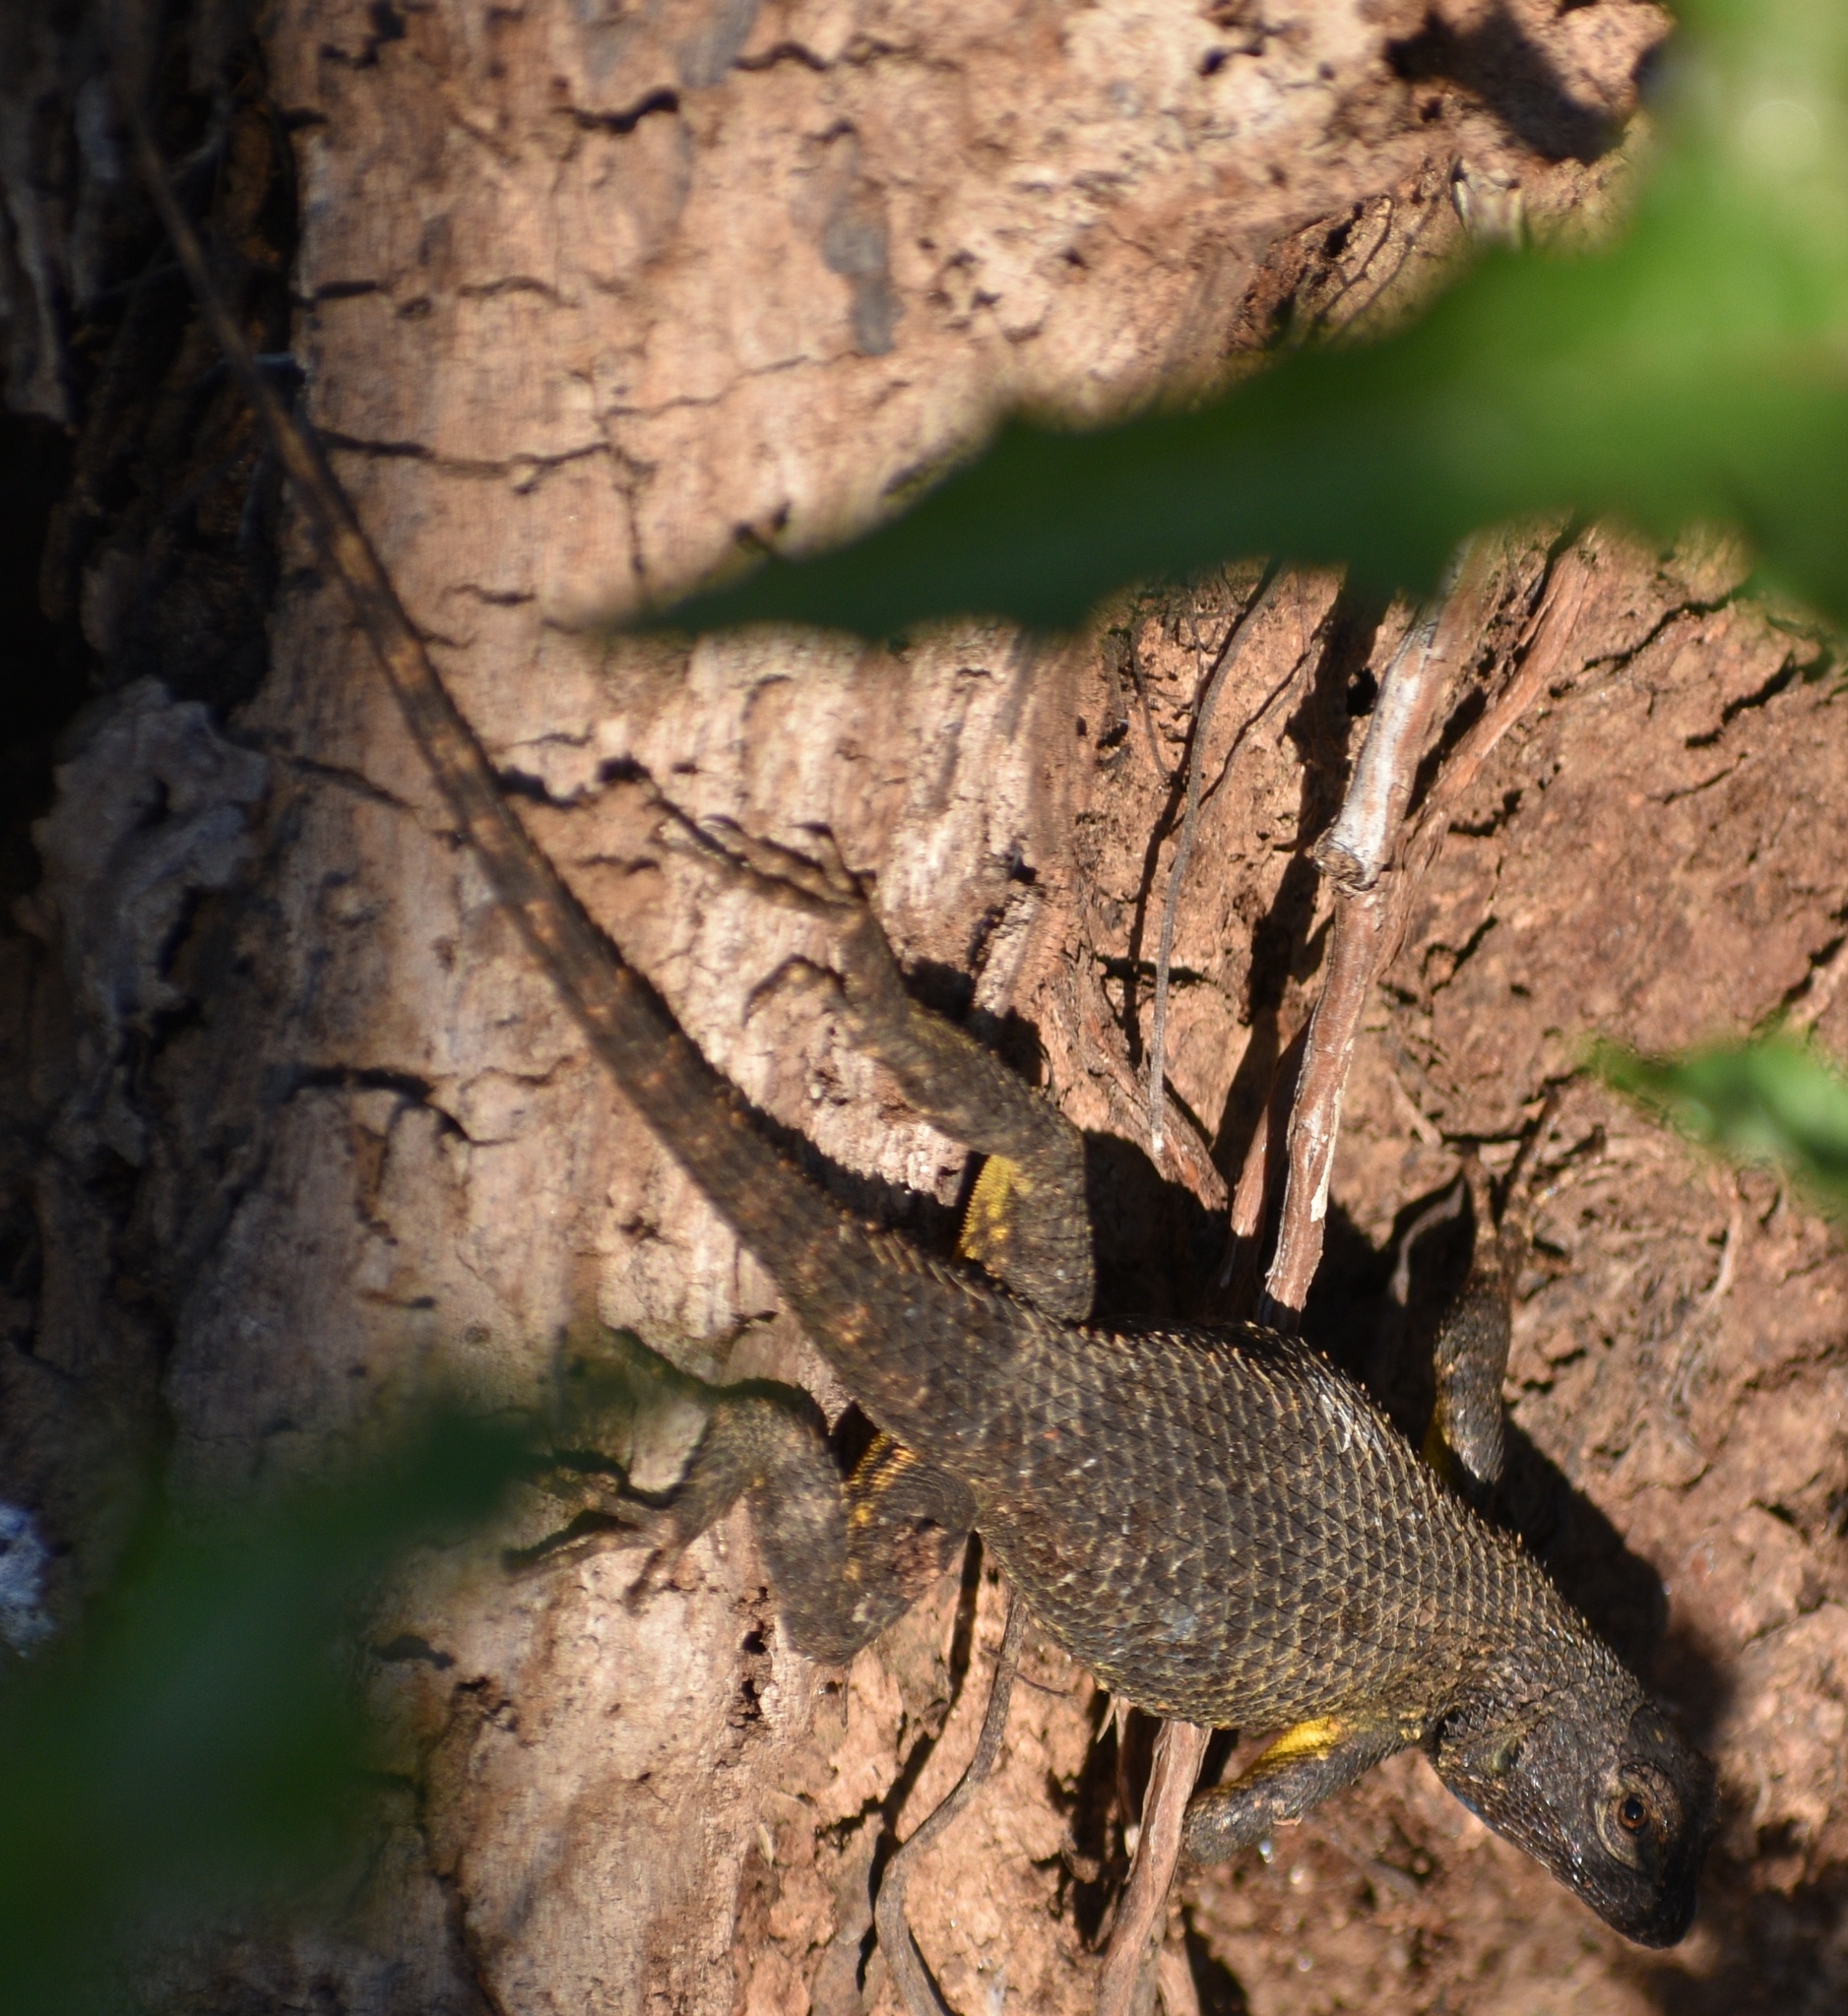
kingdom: Animalia
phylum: Chordata
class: Squamata
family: Phrynosomatidae
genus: Sceloporus
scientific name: Sceloporus occidentalis
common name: Western fence lizard
